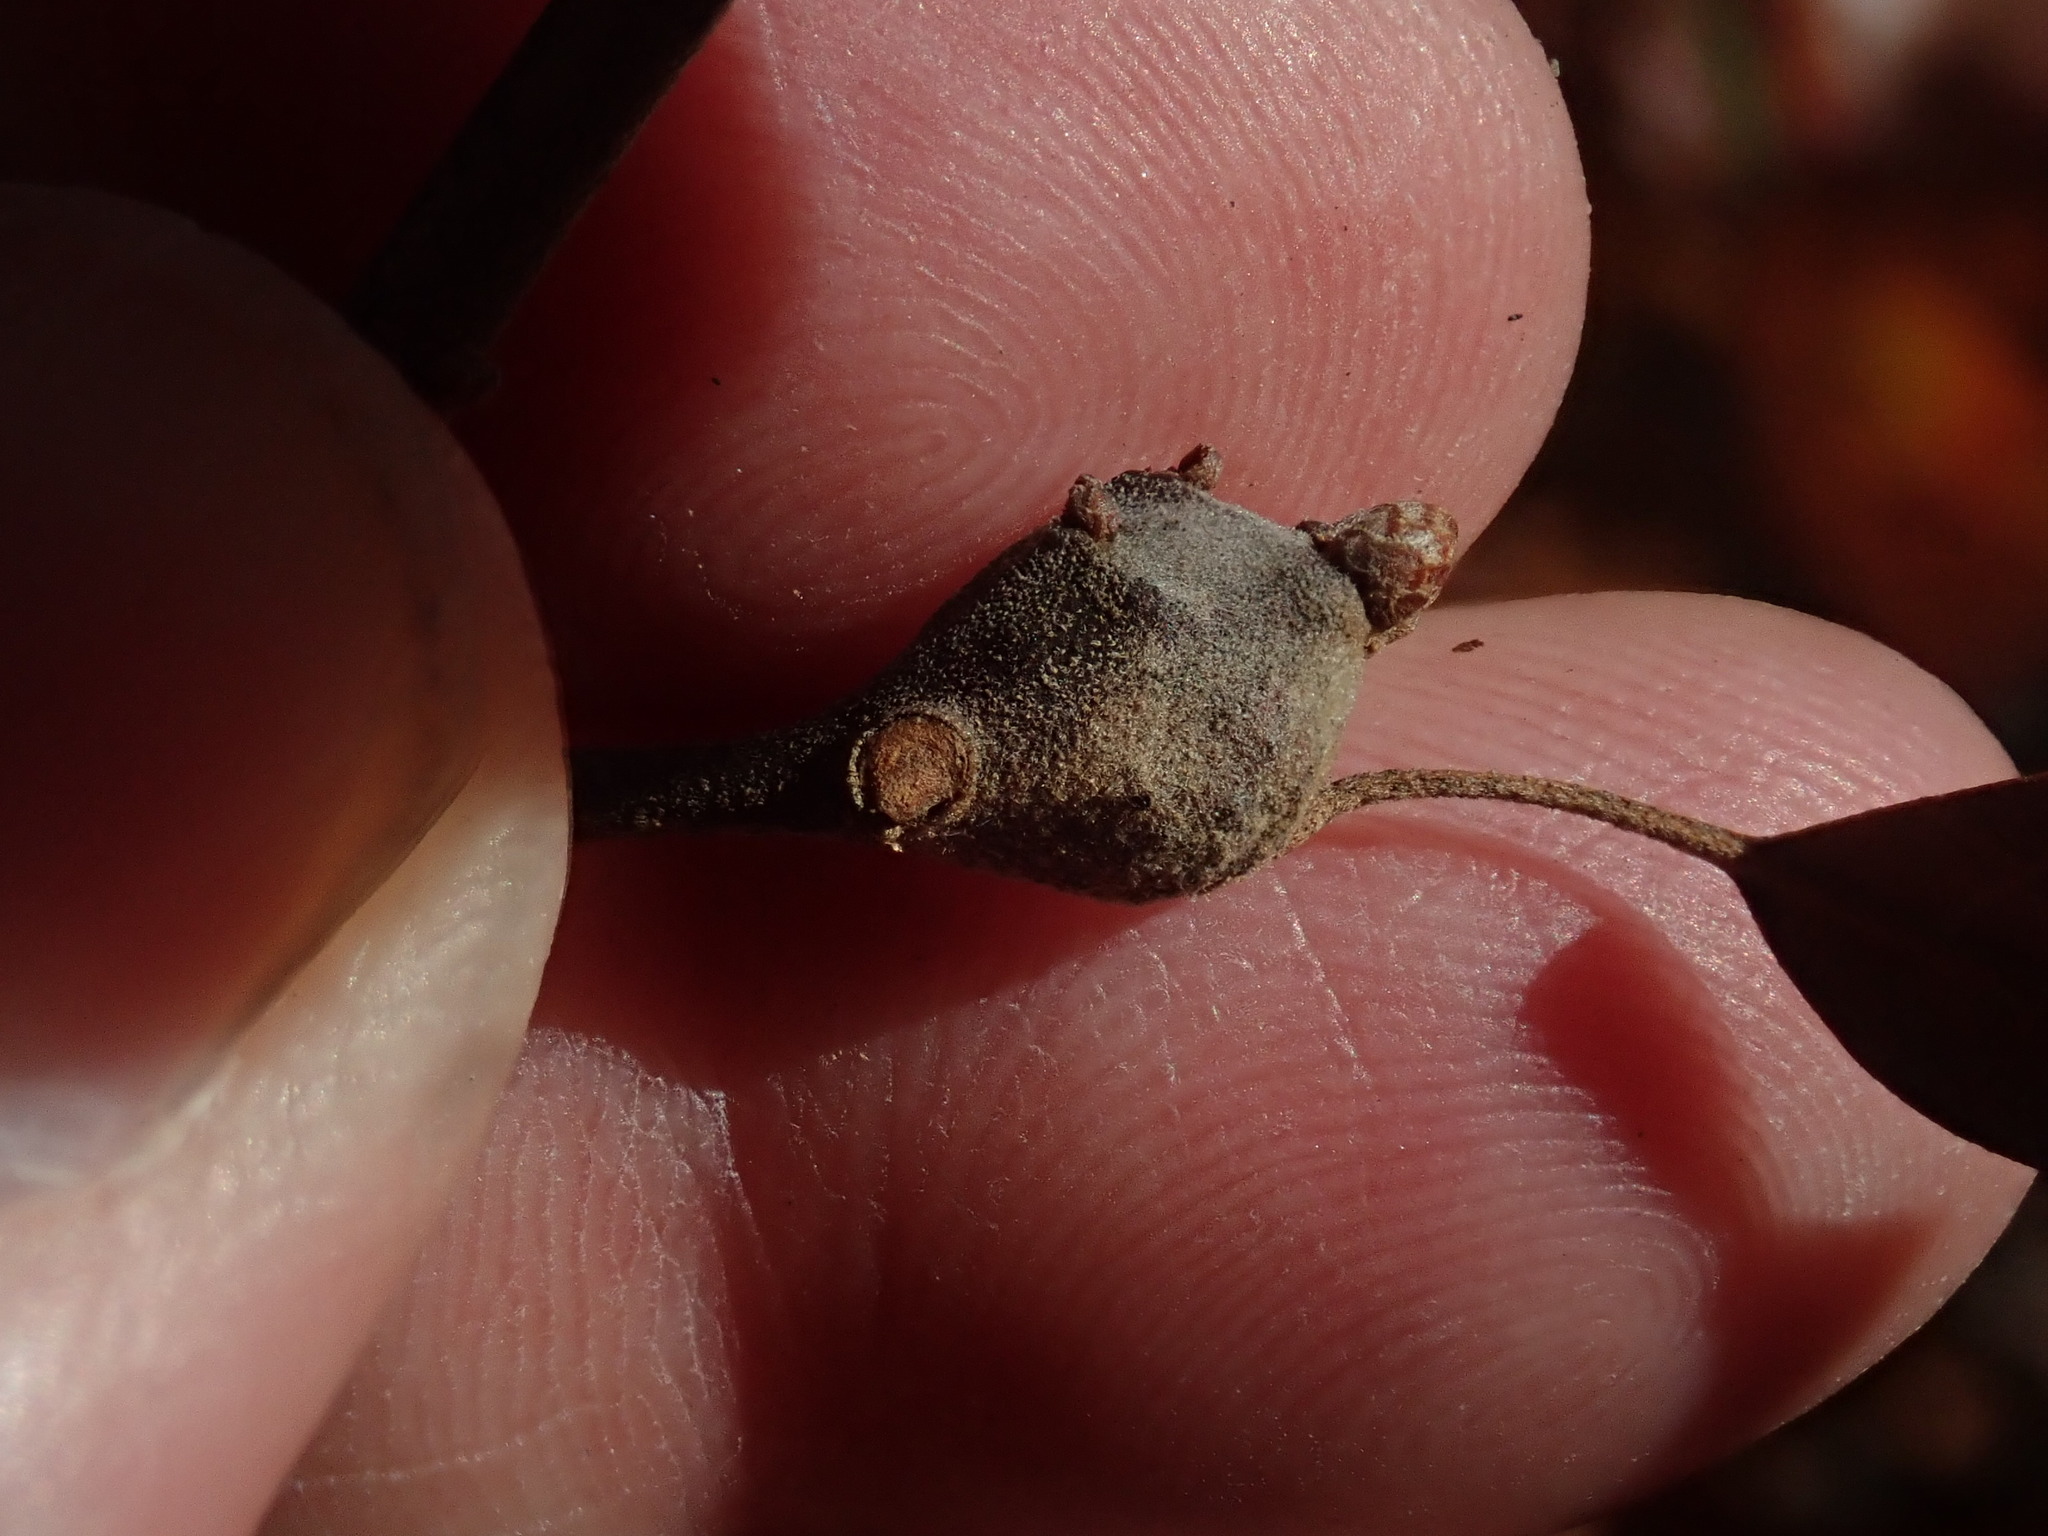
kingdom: Animalia
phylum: Arthropoda
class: Insecta
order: Hymenoptera
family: Cynipidae
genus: Zapatella
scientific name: Zapatella quercusphellos
